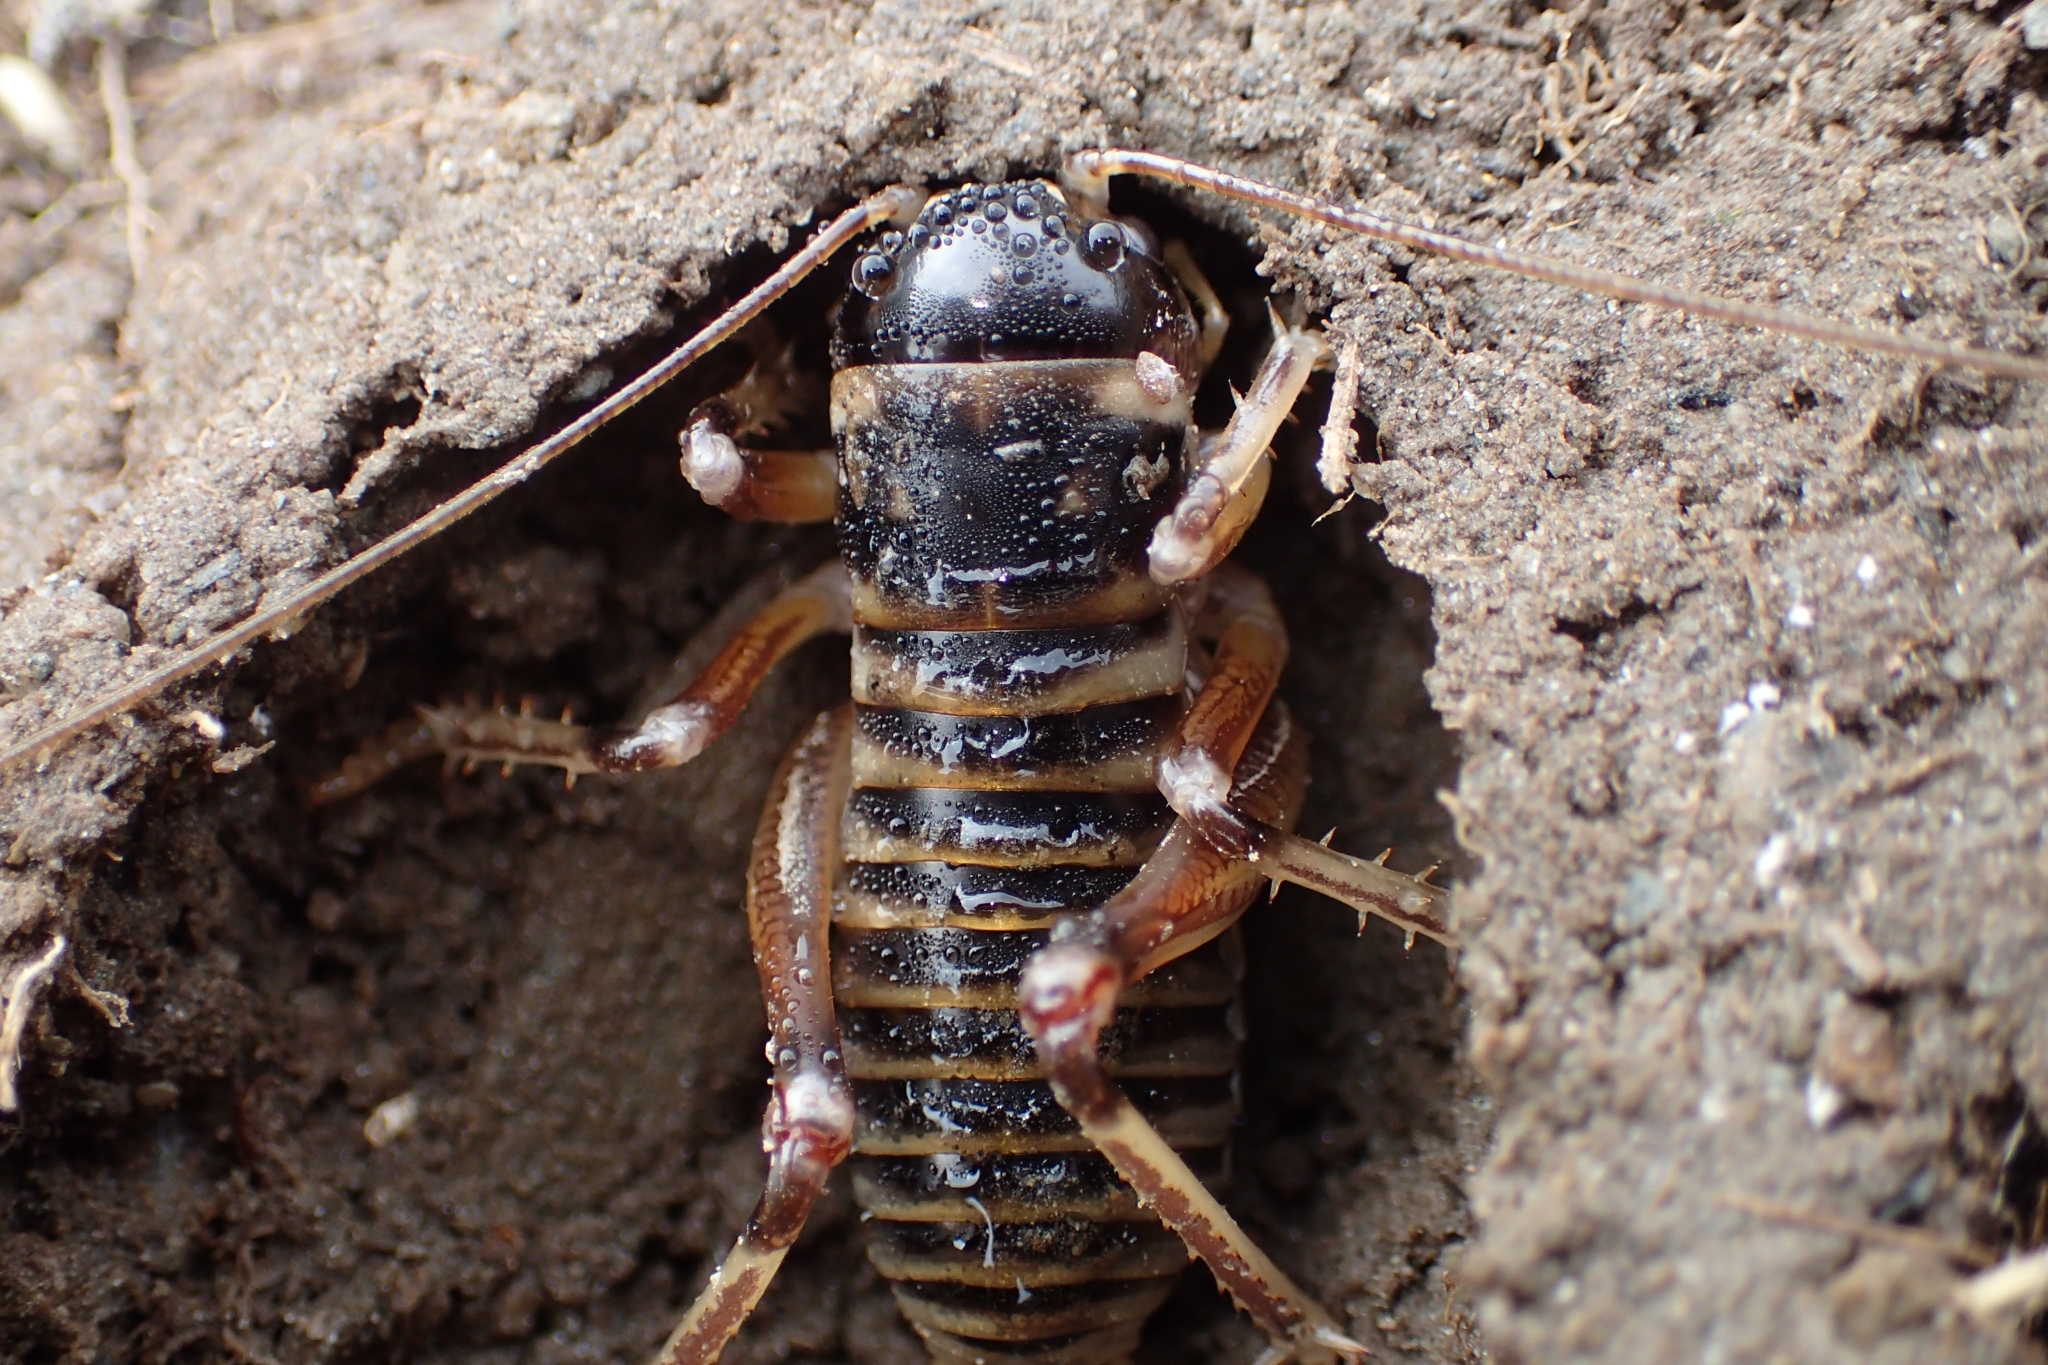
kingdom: Animalia
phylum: Arthropoda
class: Insecta
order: Orthoptera
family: Anostostomatidae
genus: Hemiandrus
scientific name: Hemiandrus focalis
